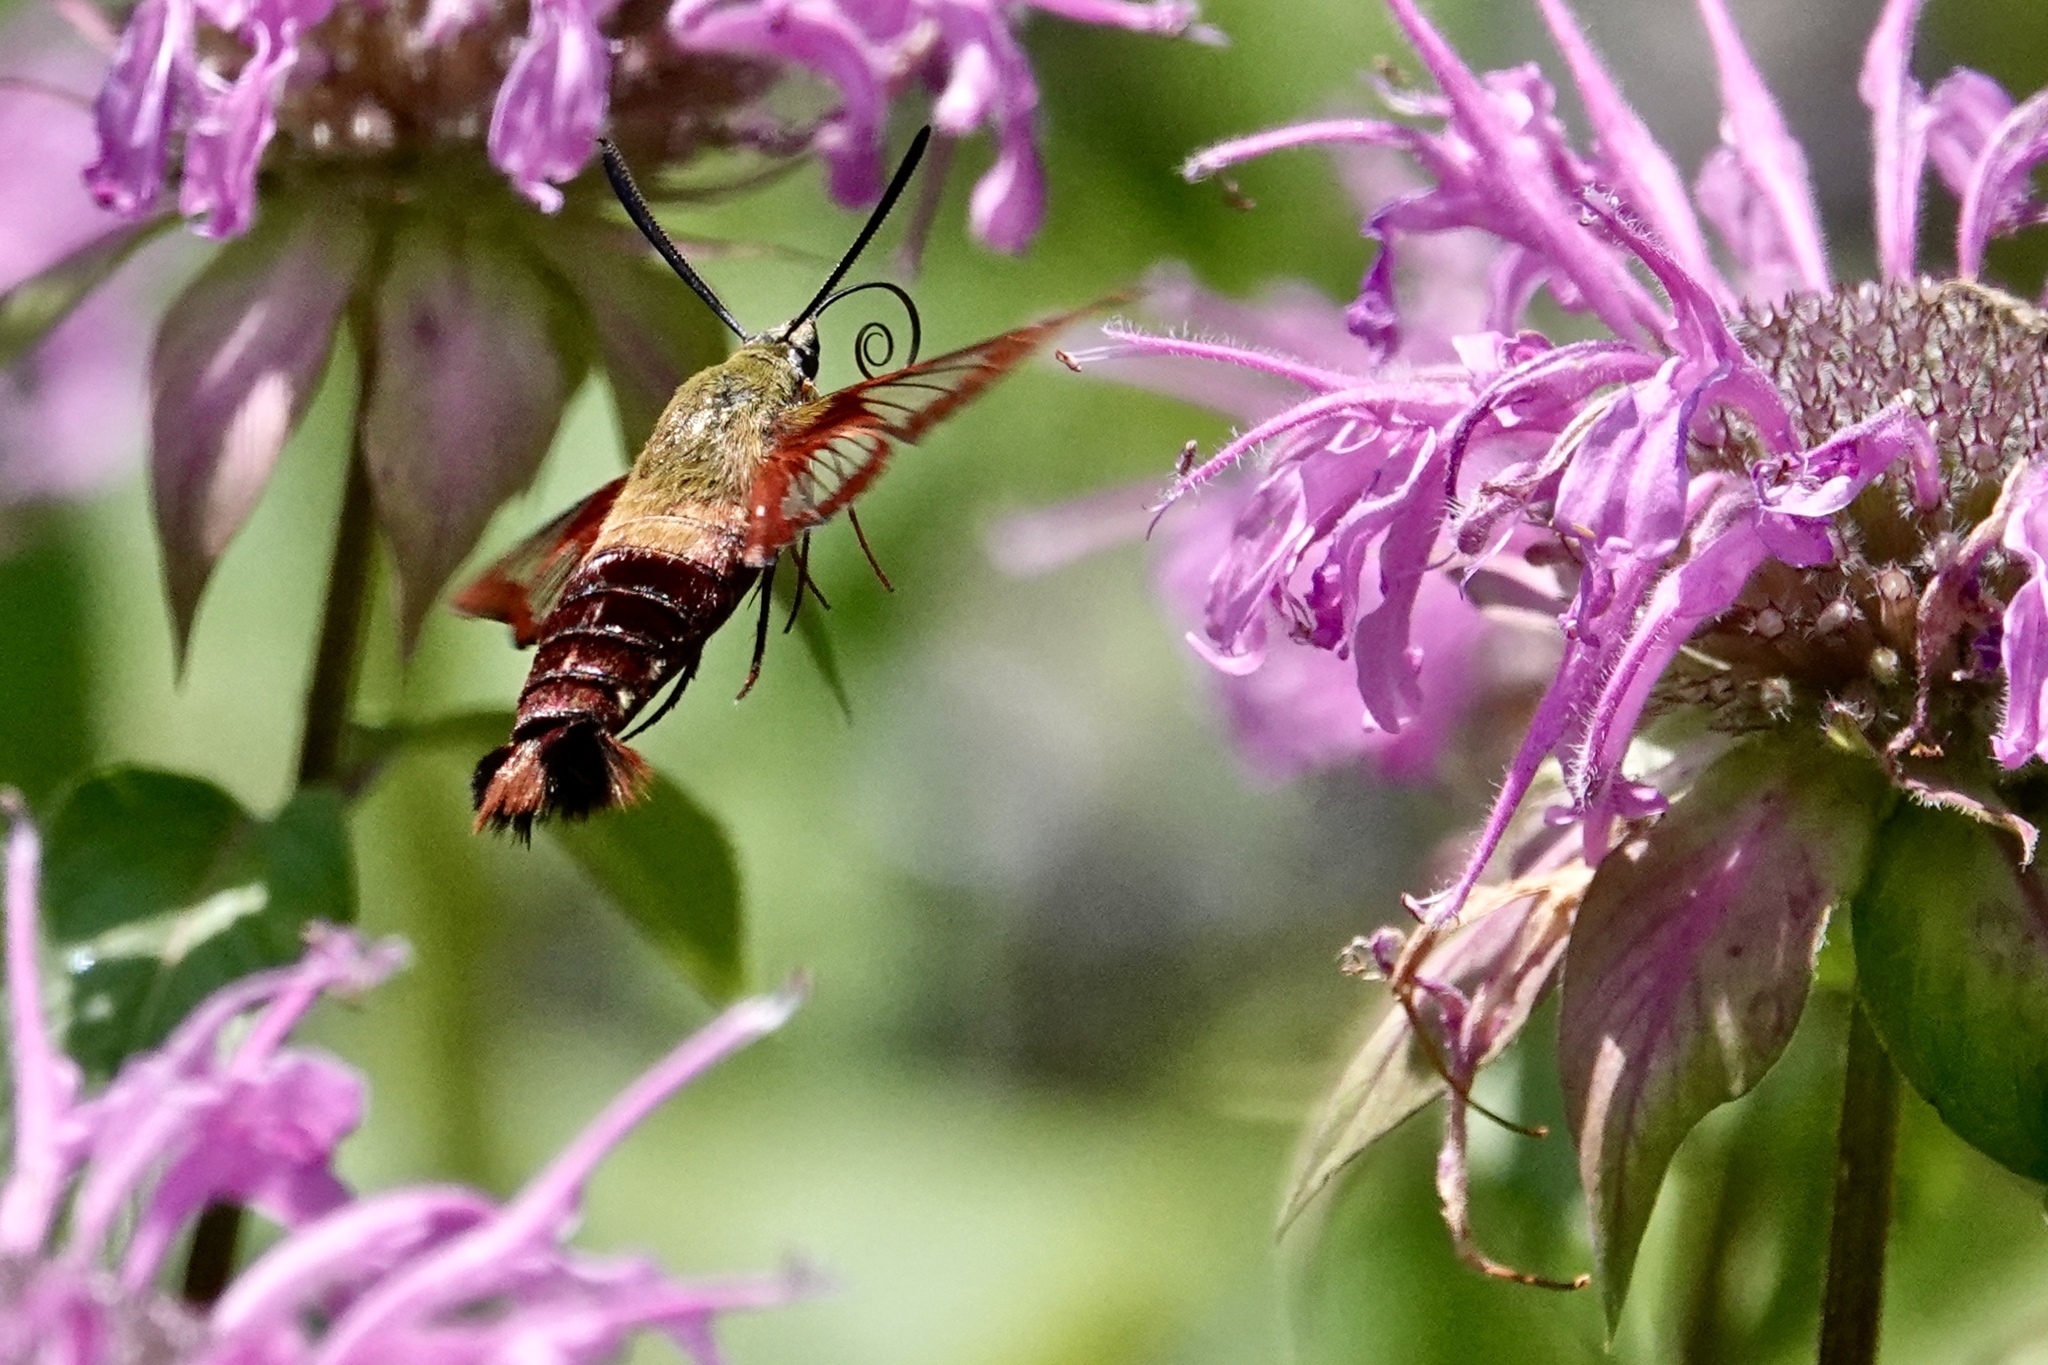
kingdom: Animalia
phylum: Arthropoda
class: Insecta
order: Lepidoptera
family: Sphingidae
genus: Hemaris
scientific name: Hemaris thysbe
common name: Common clear-wing
